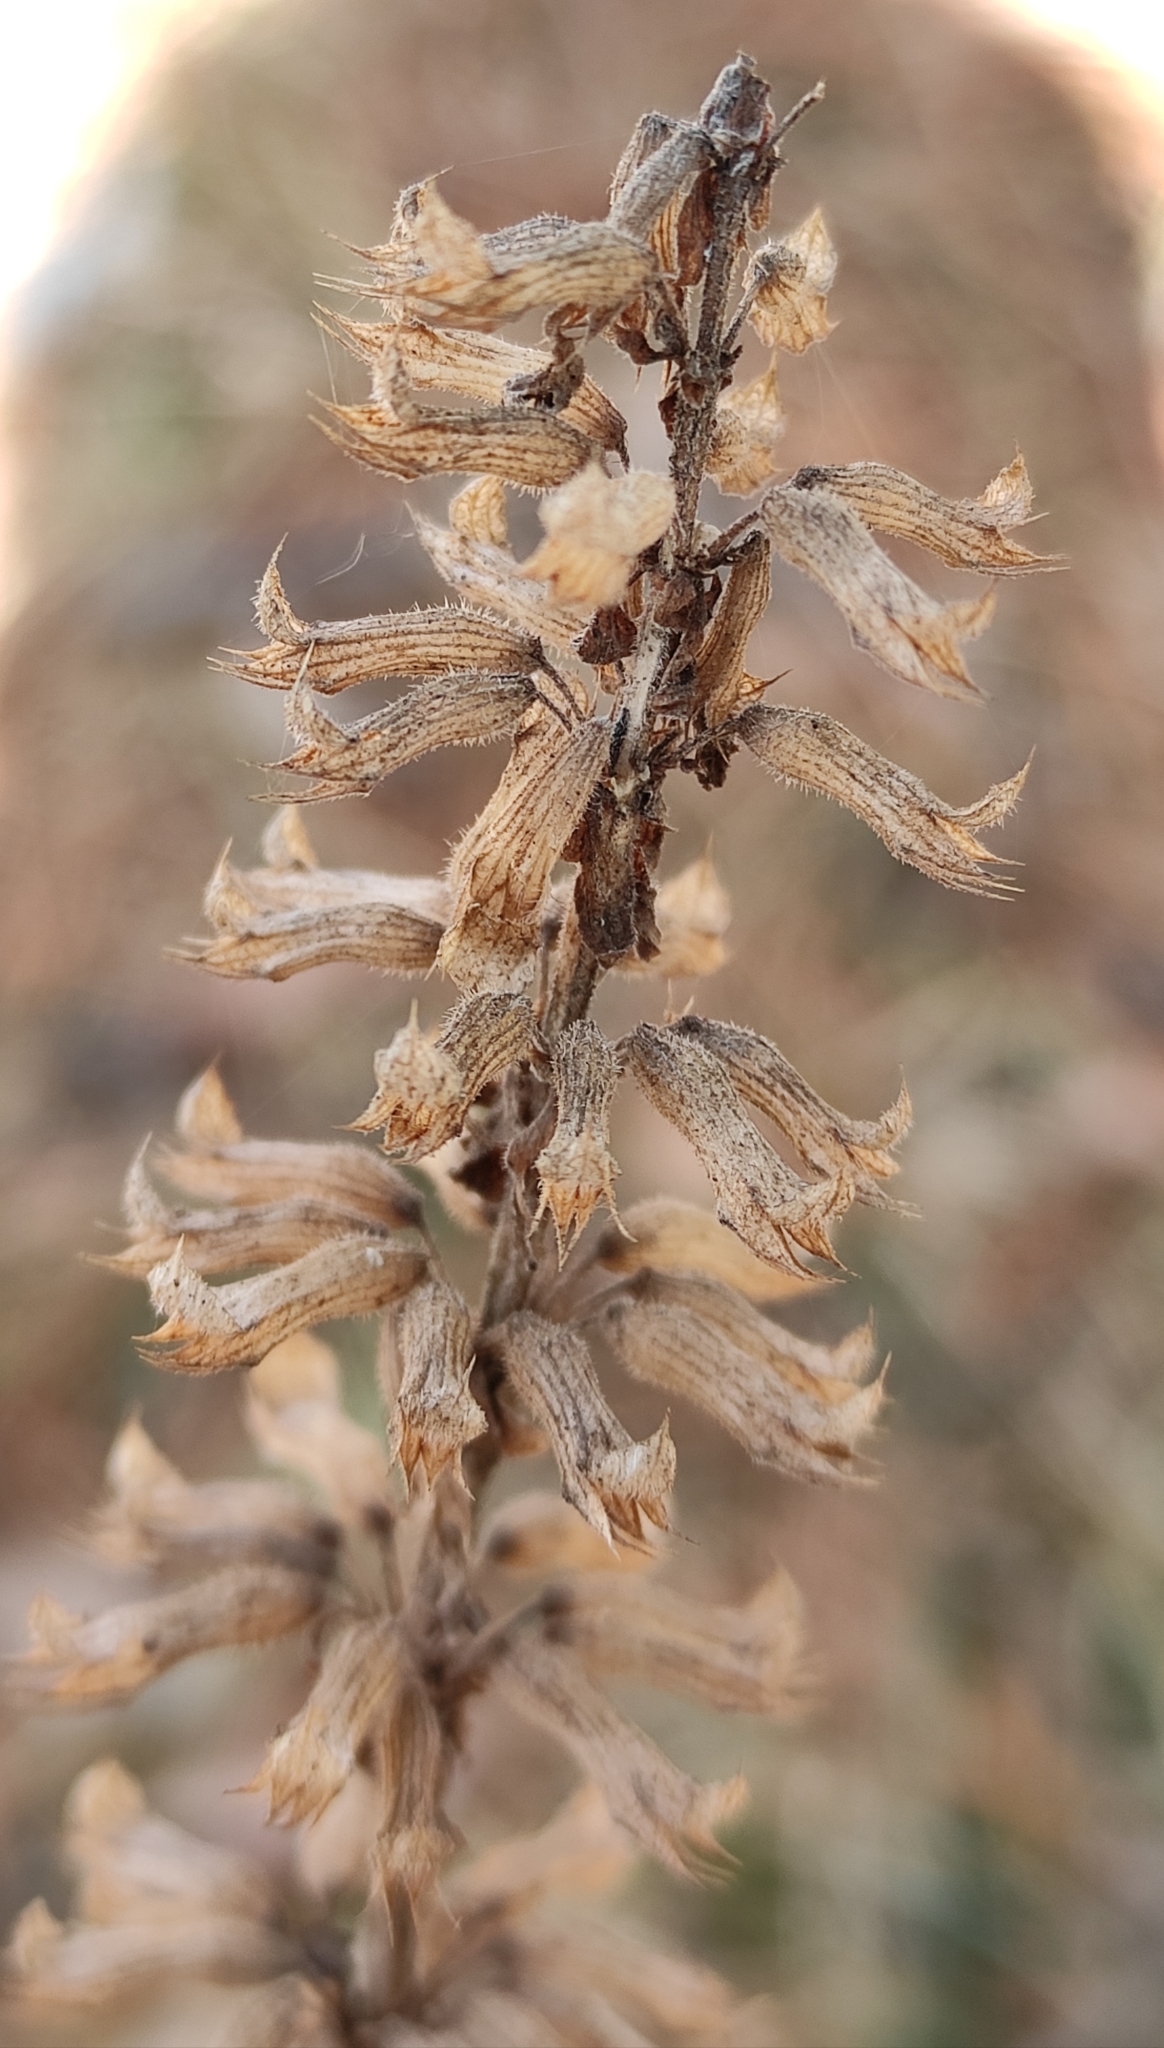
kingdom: Plantae
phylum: Tracheophyta
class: Magnoliopsida
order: Lamiales
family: Lamiaceae
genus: Dracocephalum
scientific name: Dracocephalum nutans
